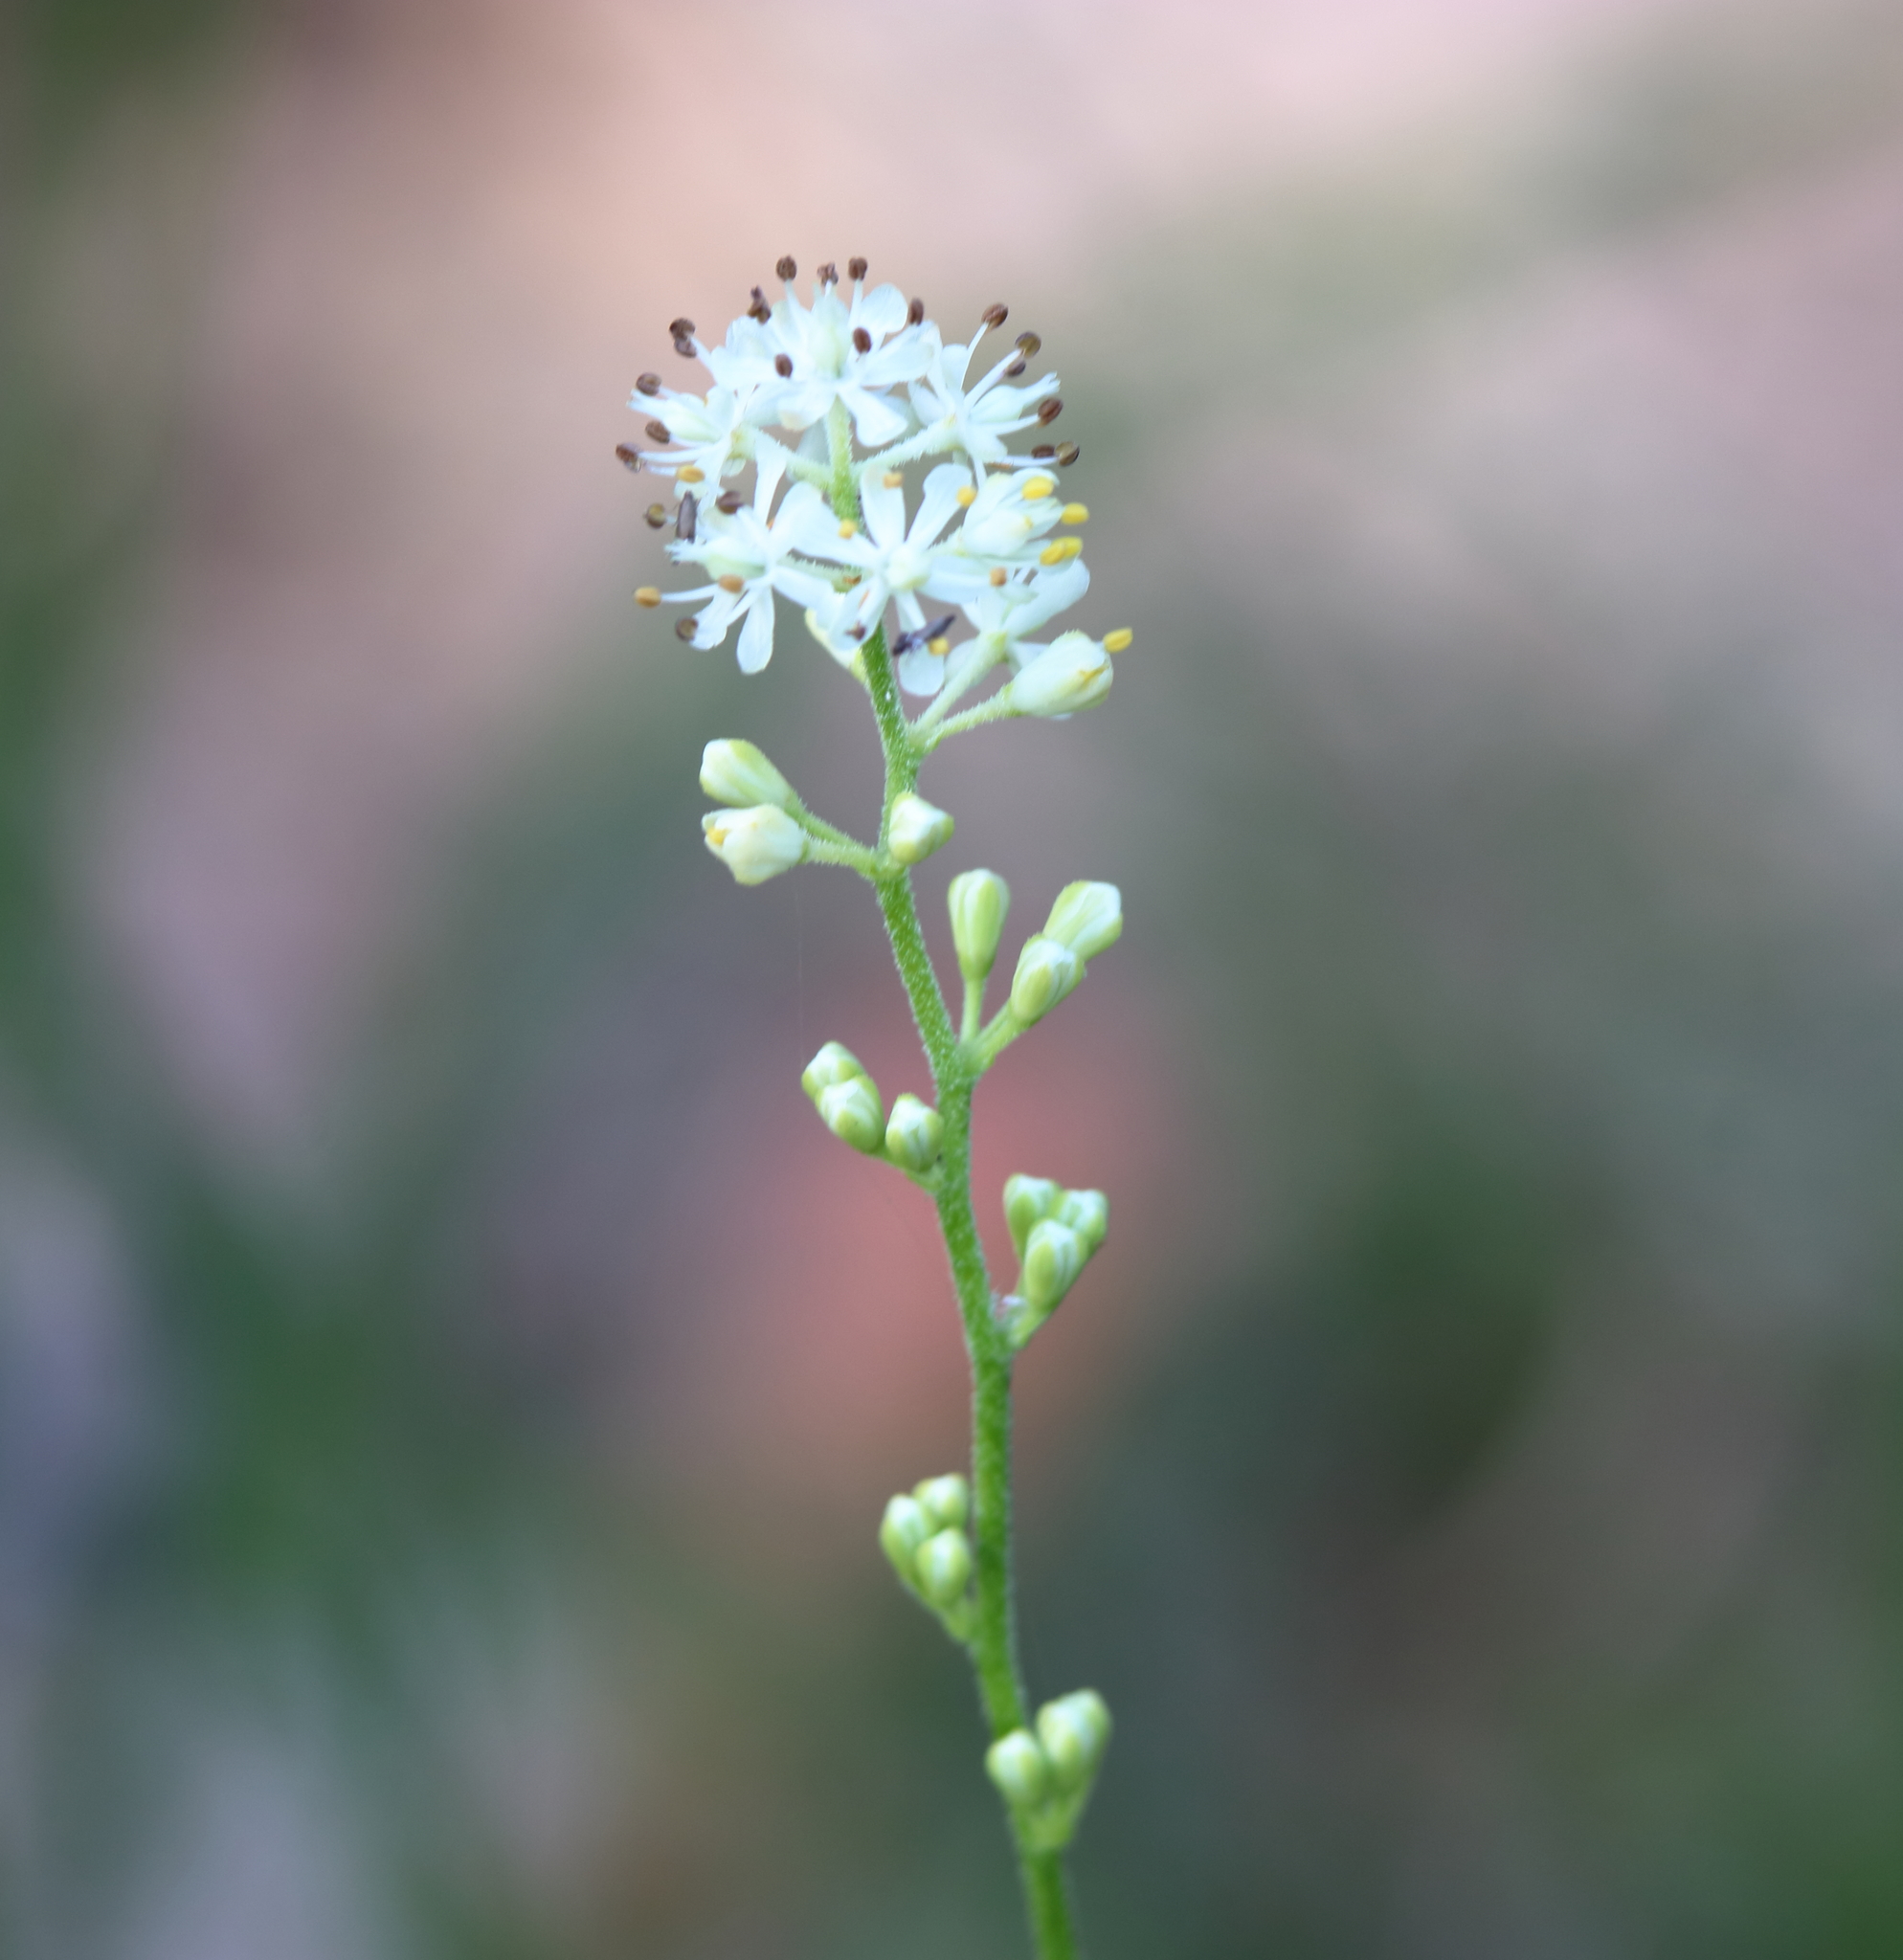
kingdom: Plantae
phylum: Tracheophyta
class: Liliopsida
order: Alismatales
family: Tofieldiaceae
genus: Triantha
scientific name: Triantha racemosa
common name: Coastal false asphodel
